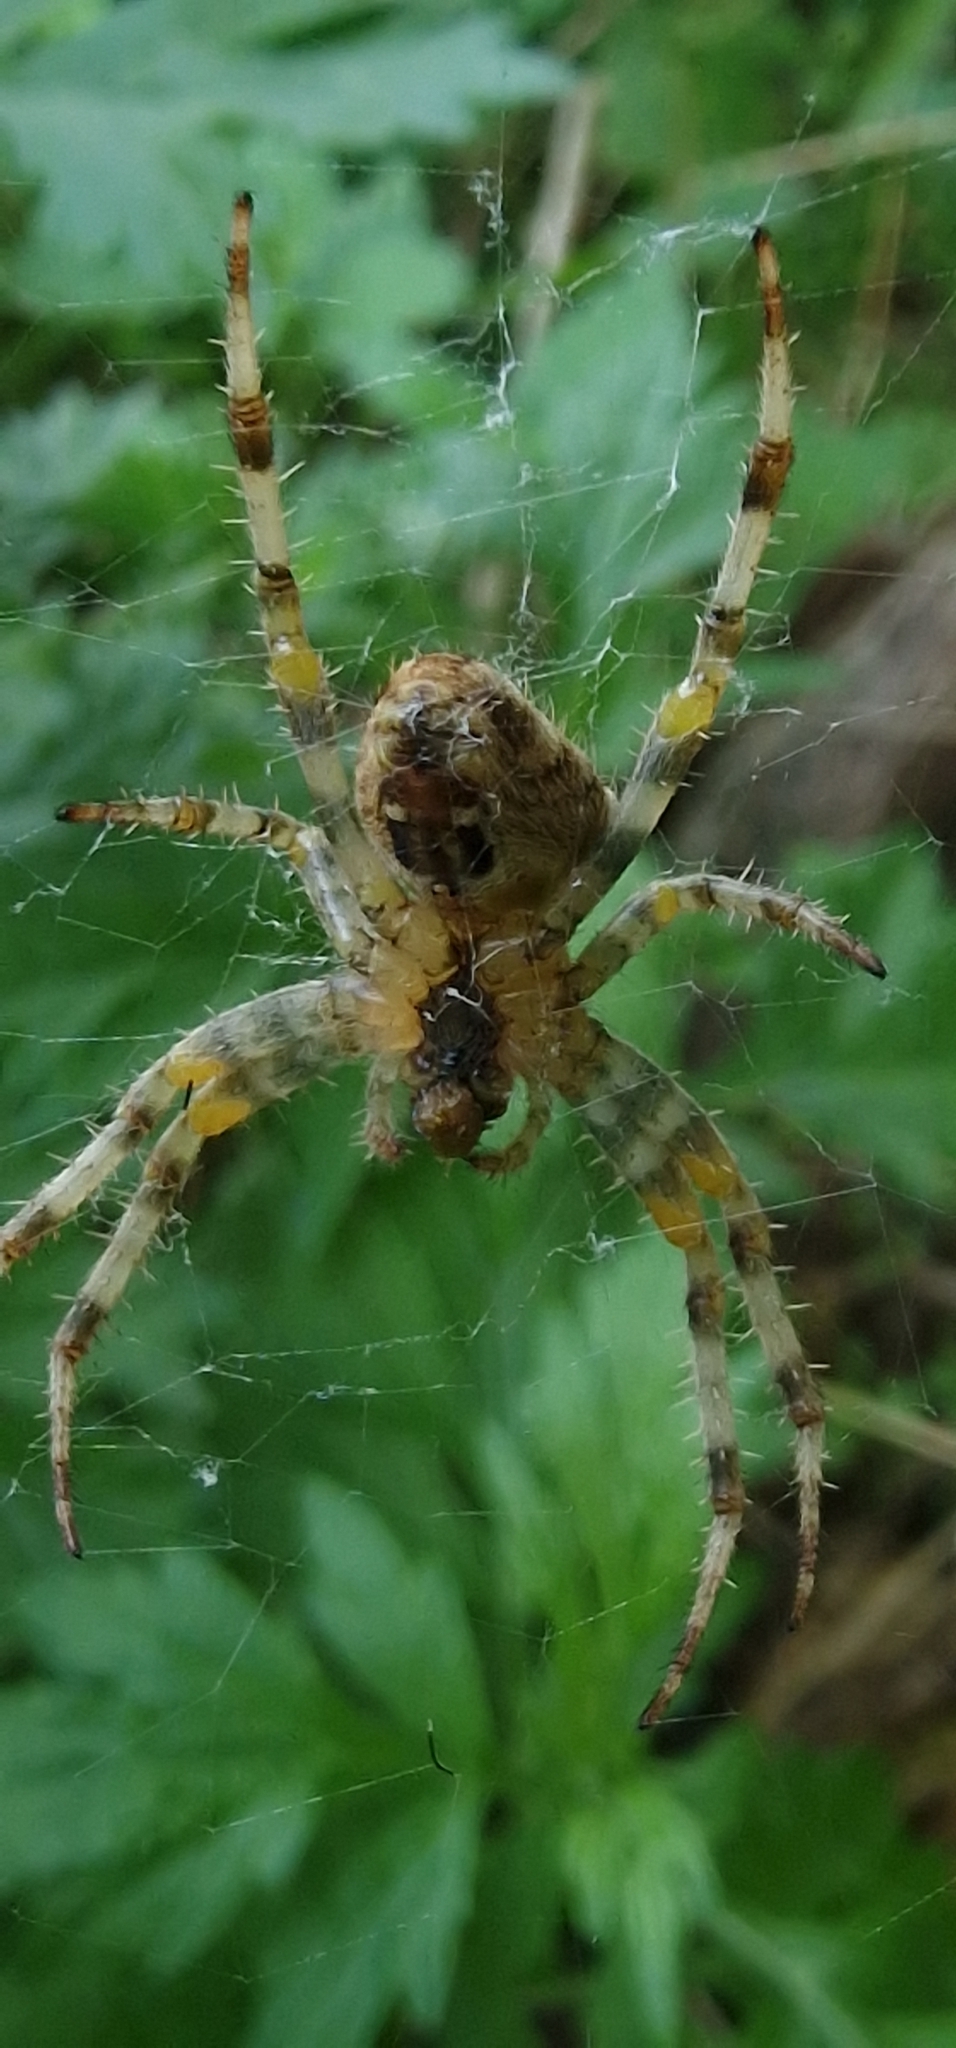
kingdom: Animalia
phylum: Arthropoda
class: Arachnida
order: Araneae
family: Araneidae
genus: Araneus
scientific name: Araneus diadematus
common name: Cross orbweaver
